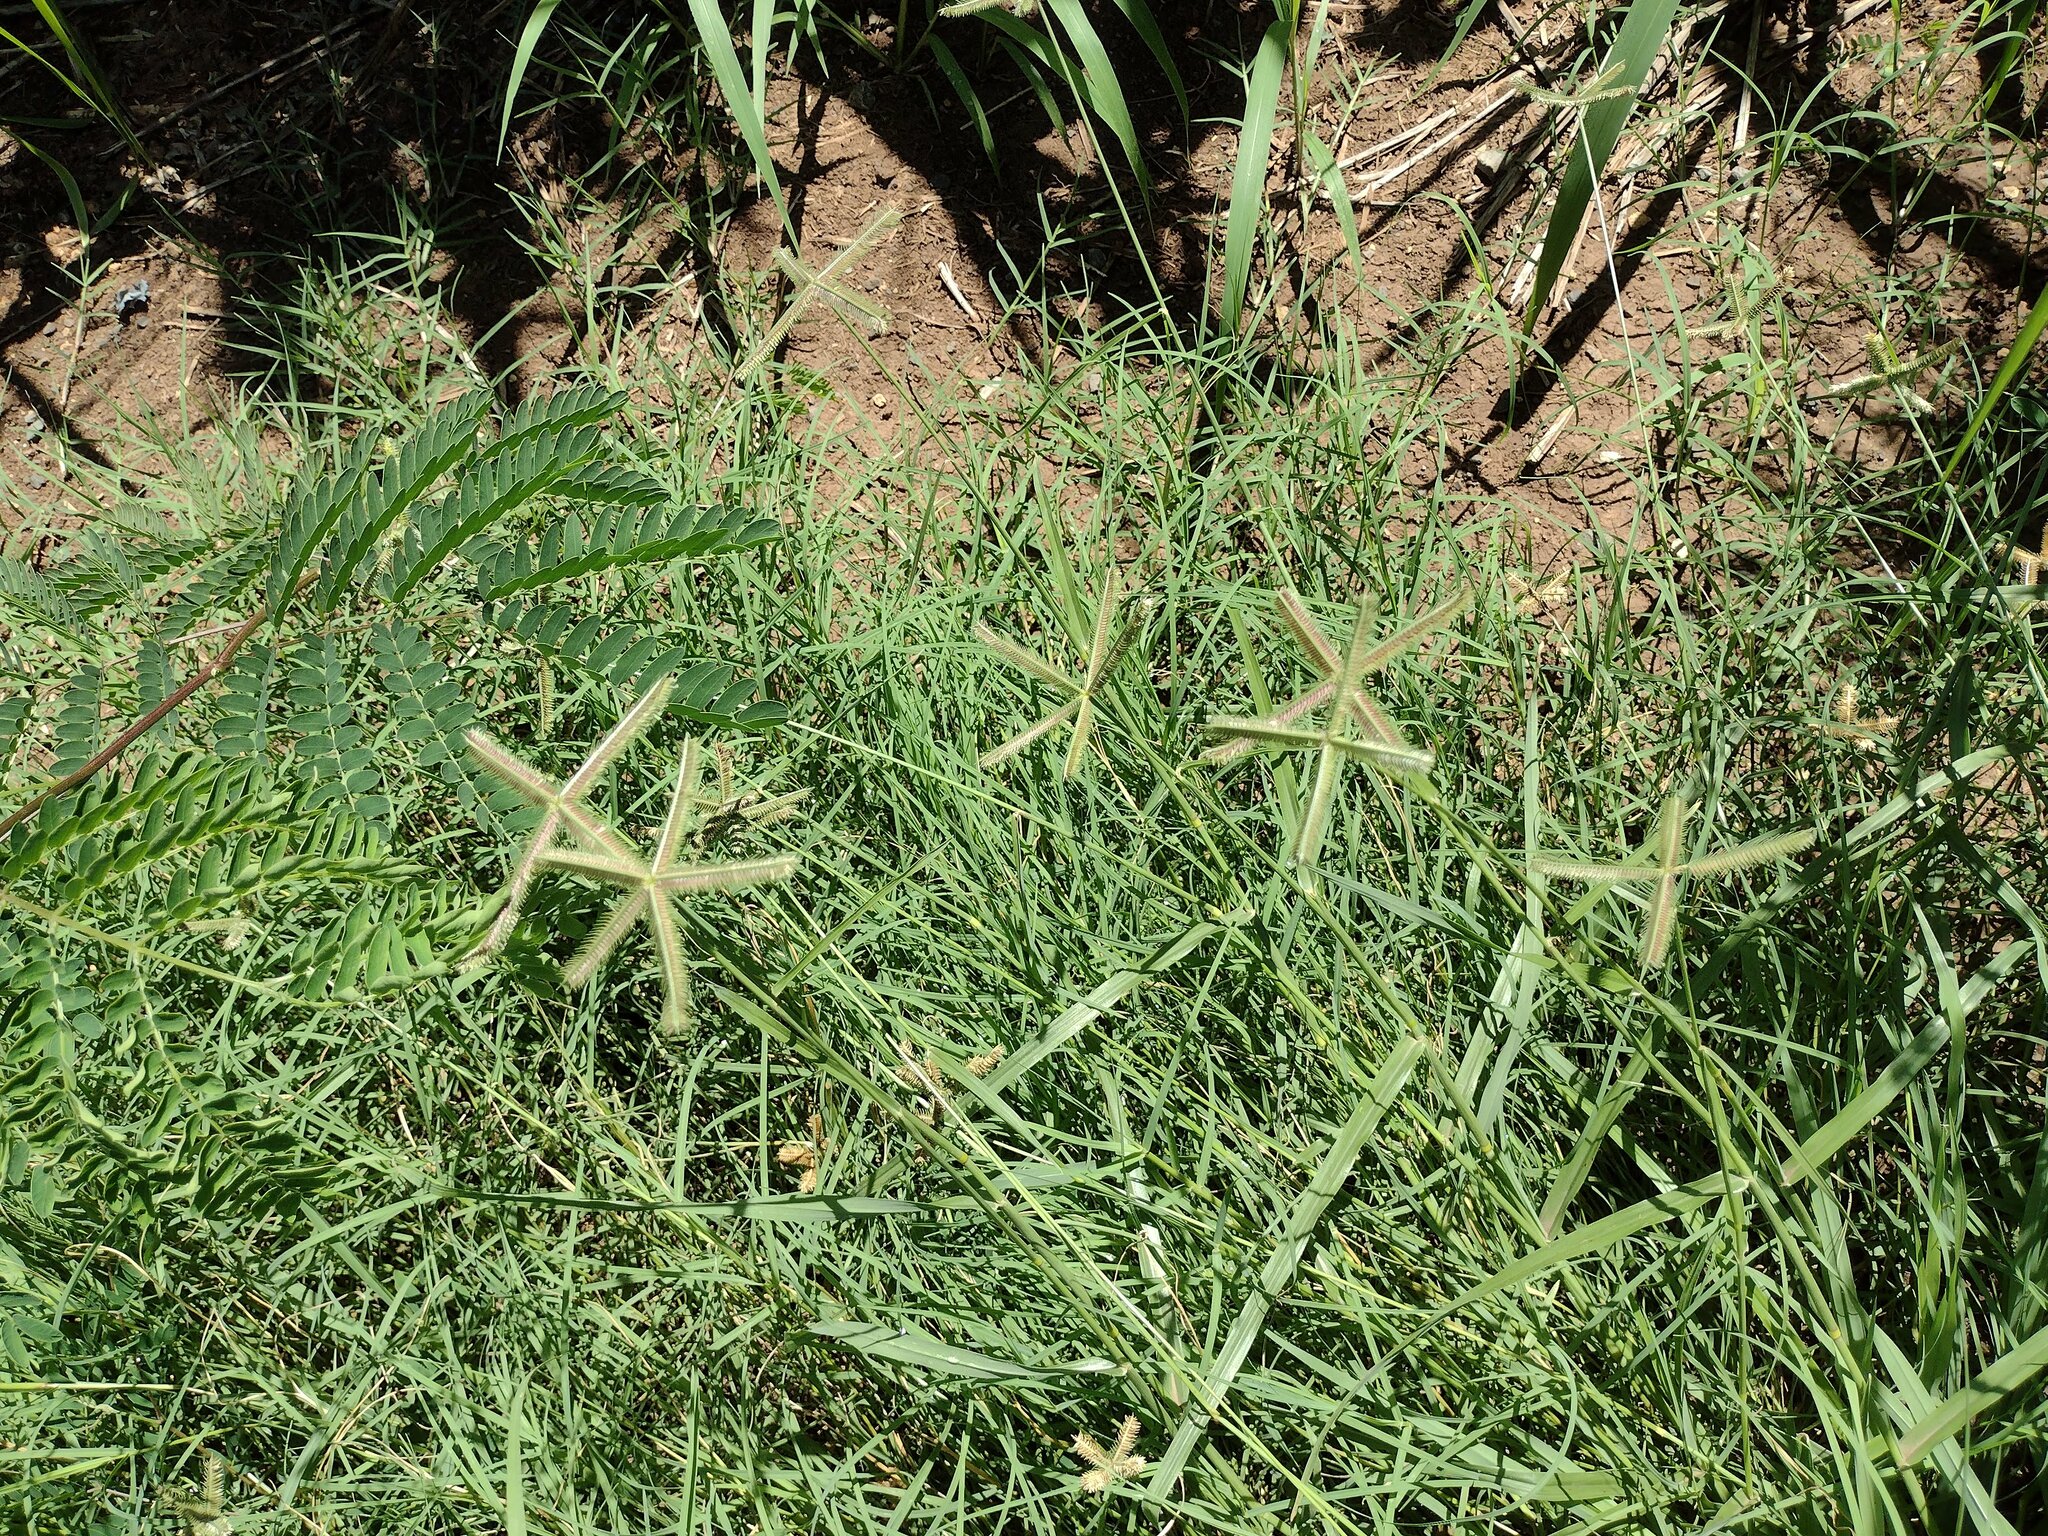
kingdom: Plantae
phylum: Tracheophyta
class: Liliopsida
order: Poales
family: Poaceae
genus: Dactyloctenium
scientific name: Dactyloctenium aegyptium
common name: Egyptian grass
